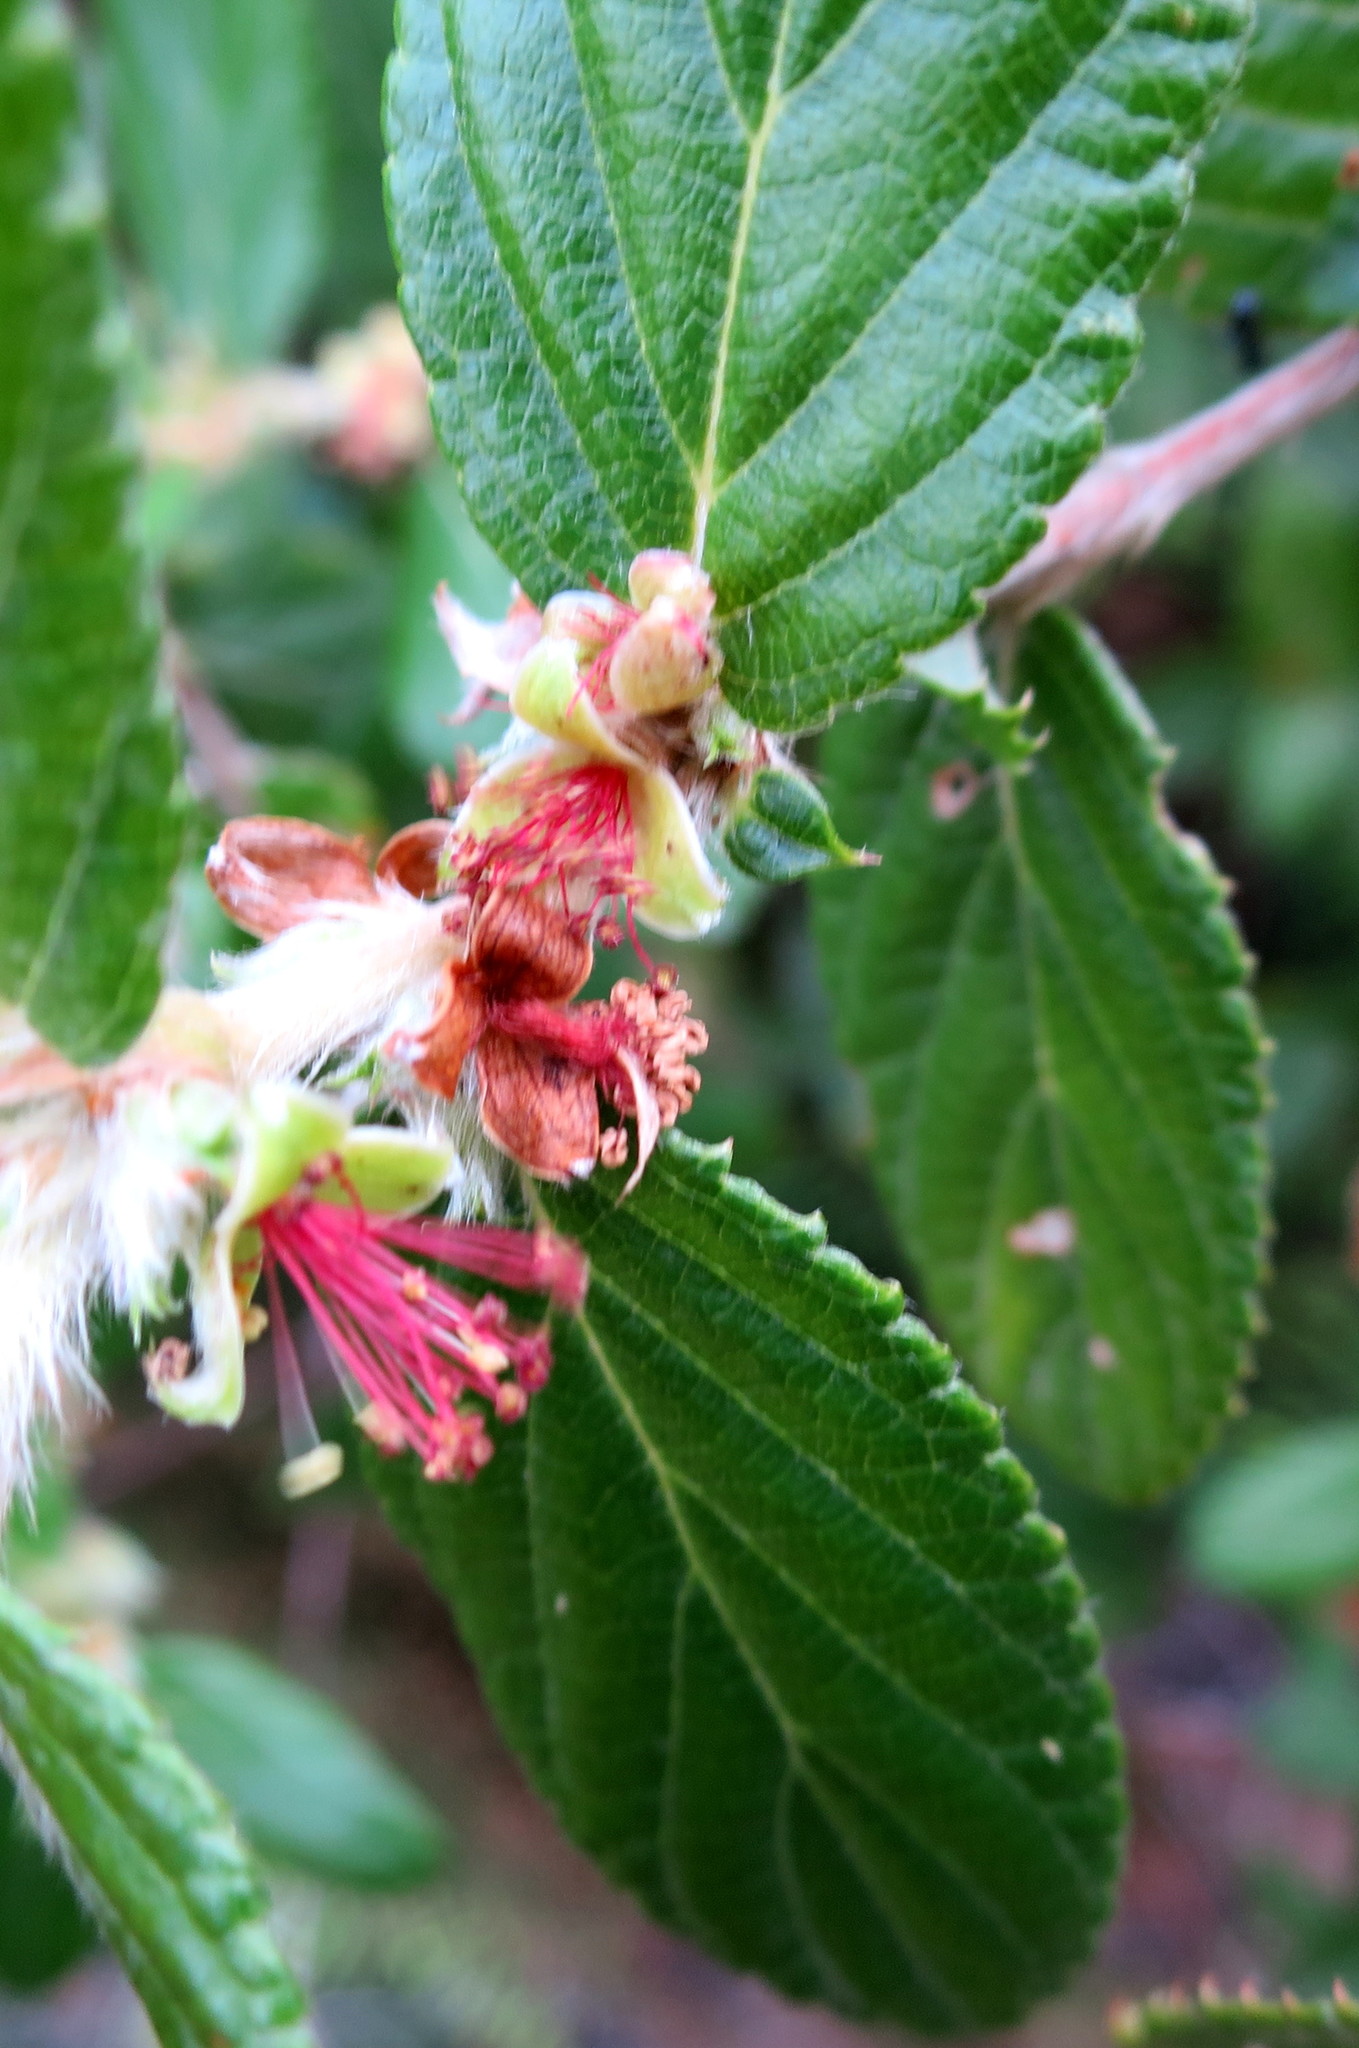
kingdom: Plantae
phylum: Tracheophyta
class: Magnoliopsida
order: Rosales
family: Rosaceae
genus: Cliffortia
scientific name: Cliffortia odorata
